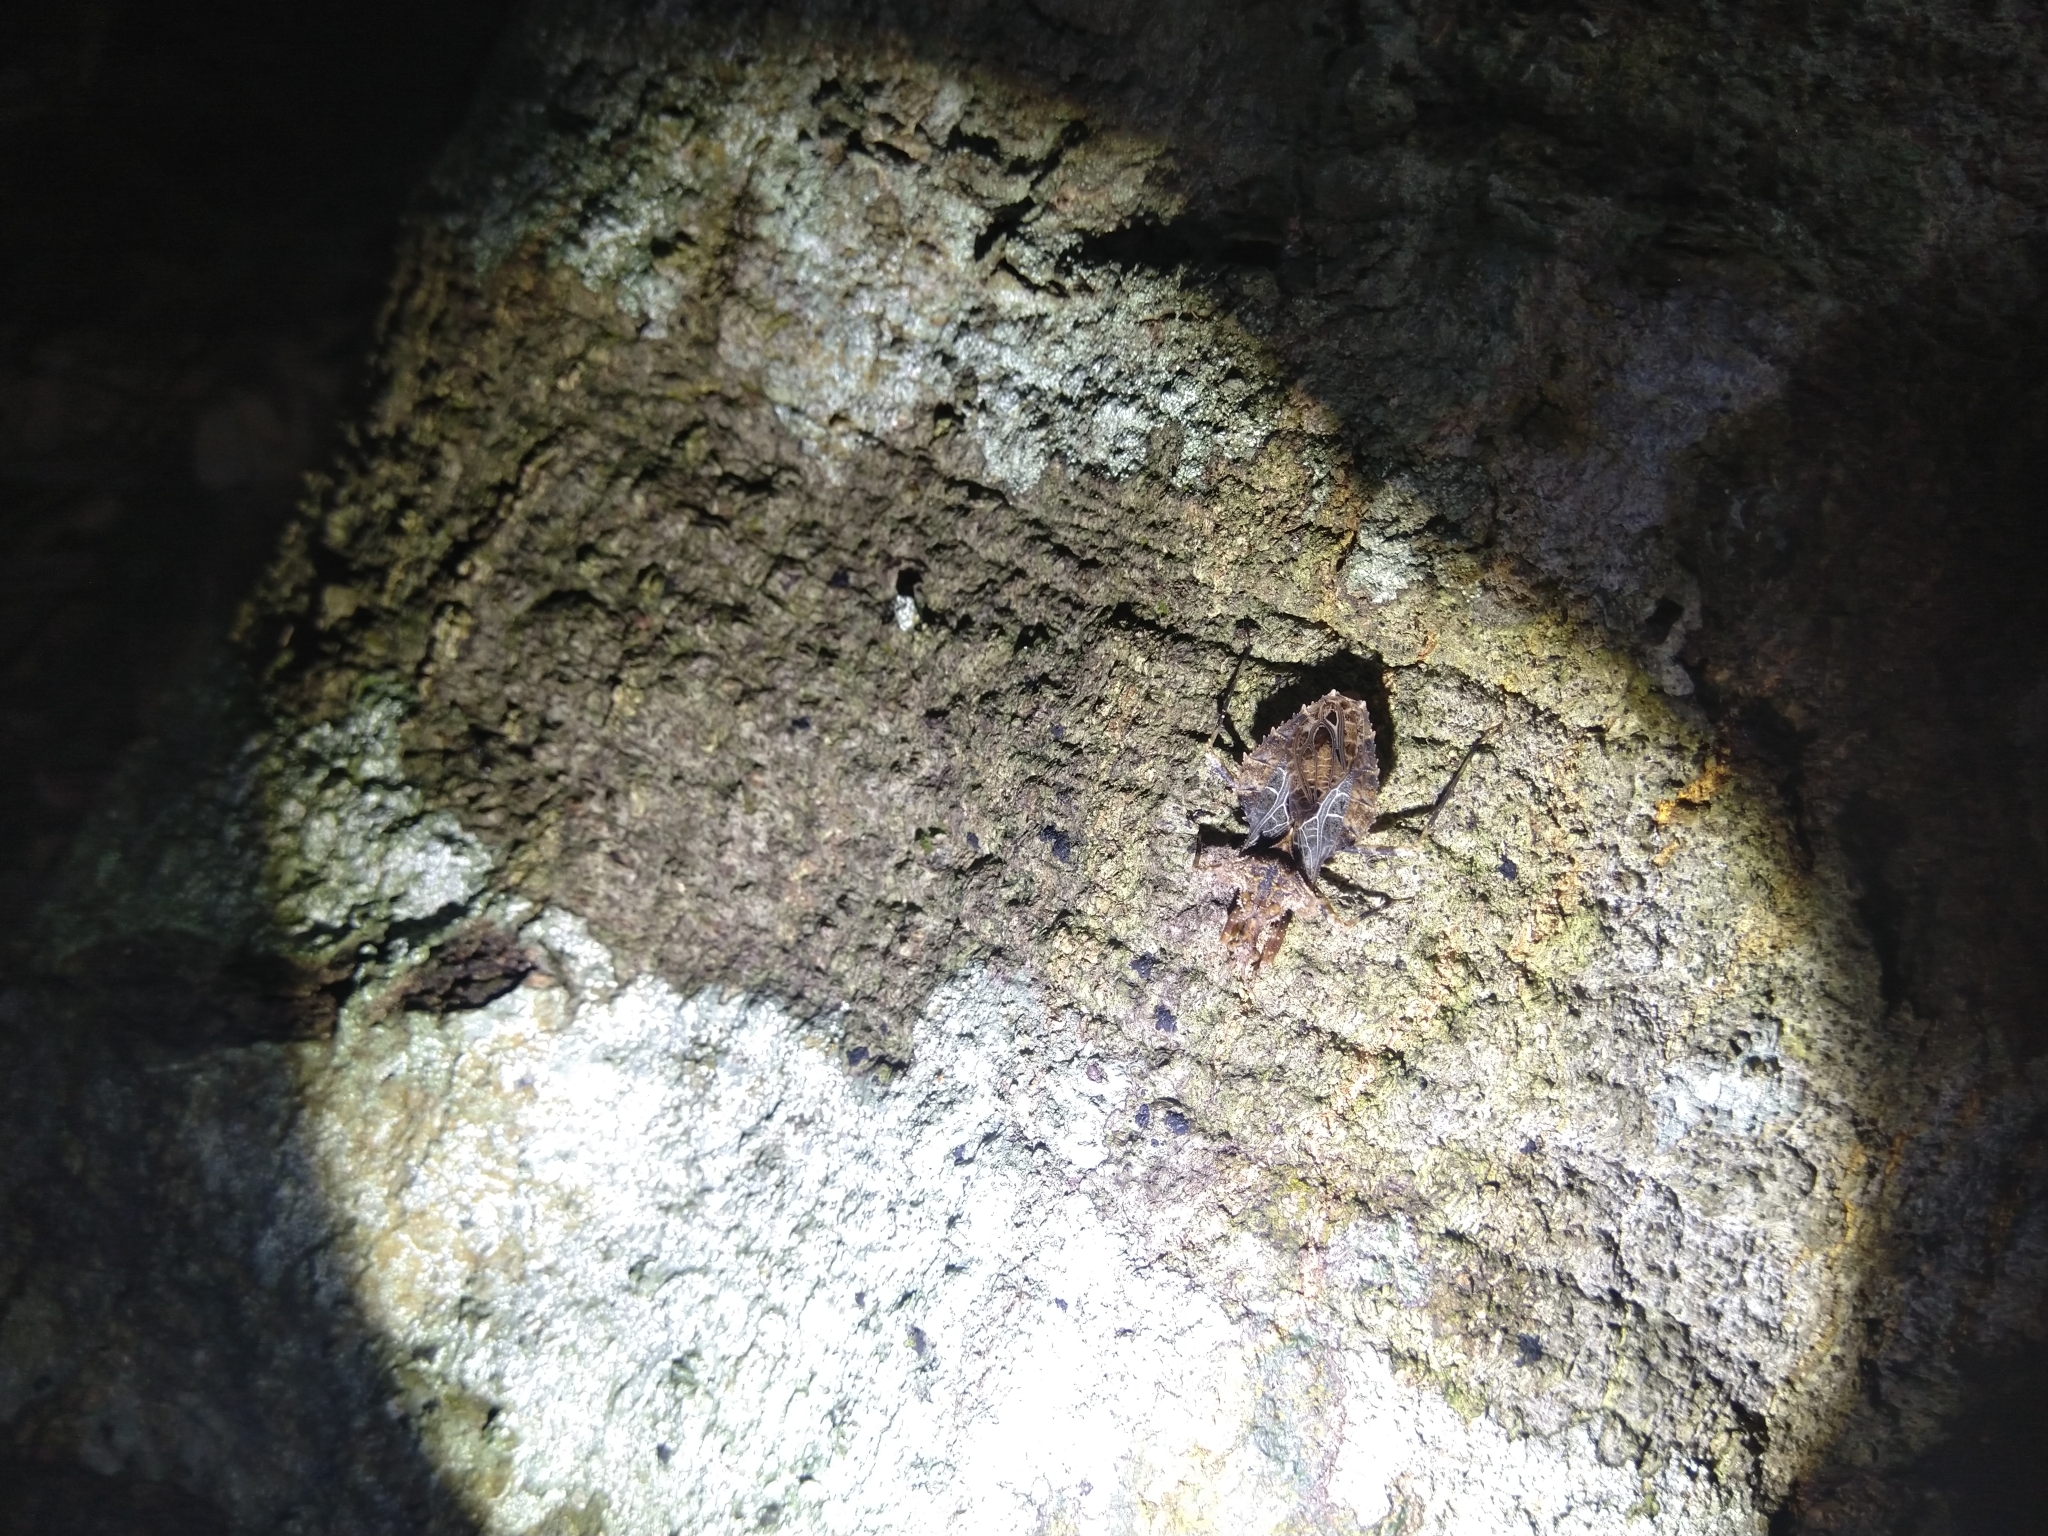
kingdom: Animalia
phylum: Arthropoda
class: Insecta
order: Hemiptera
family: Reduviidae
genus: Neocentrocnemis
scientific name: Neocentrocnemis stali
